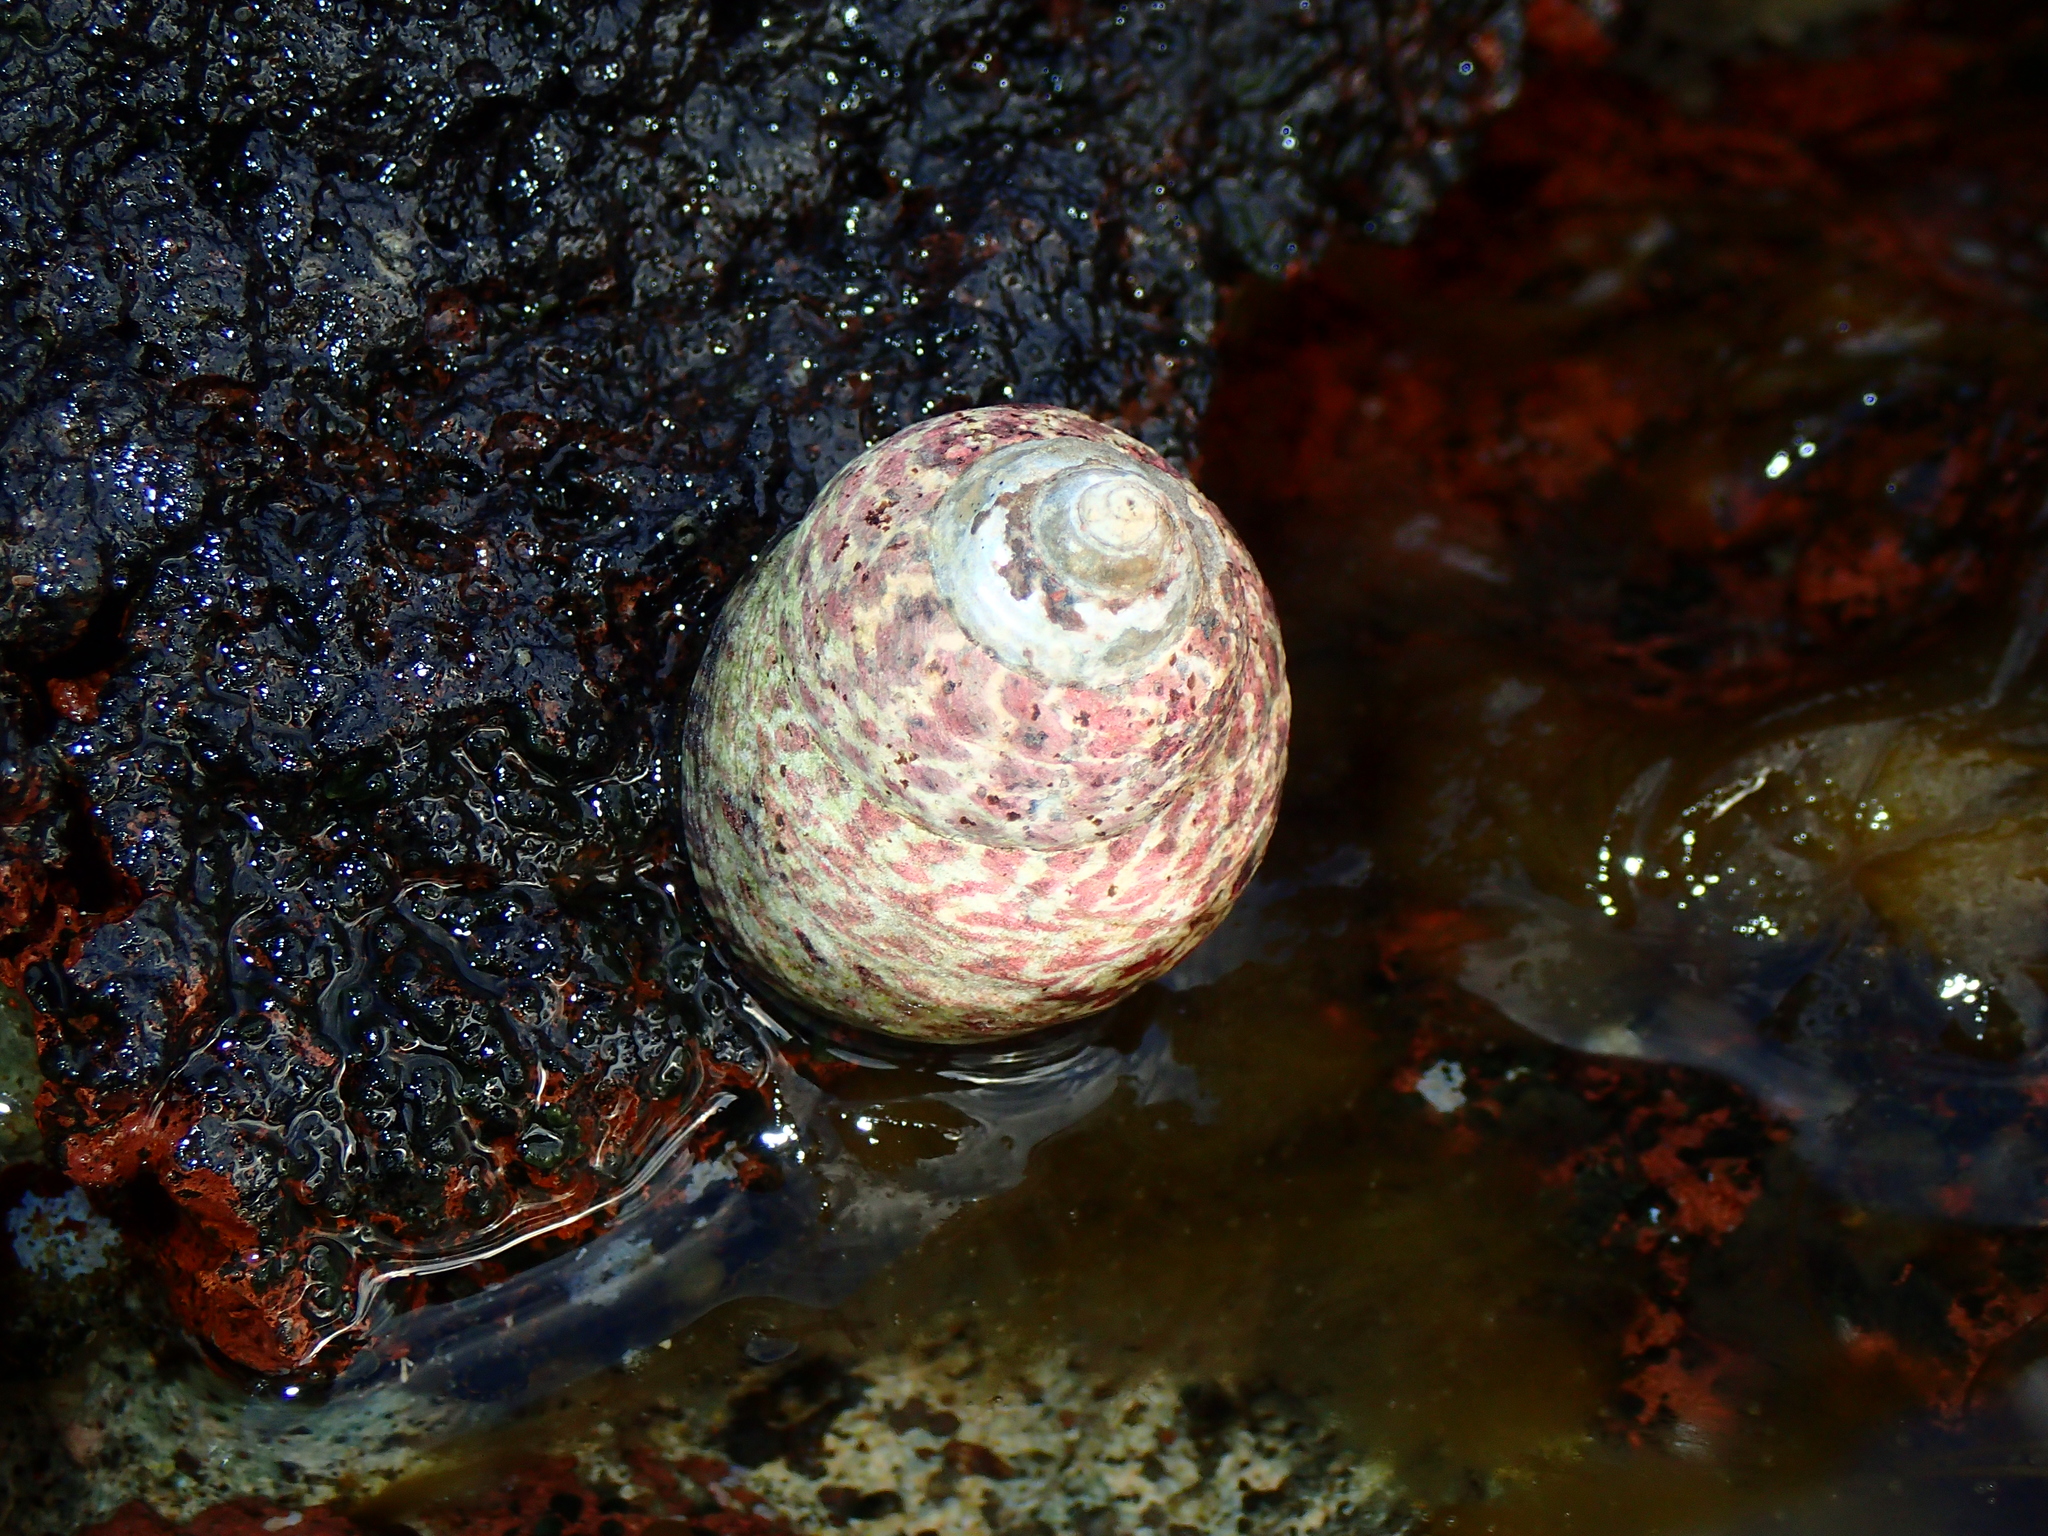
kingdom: Animalia
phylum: Mollusca
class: Gastropoda
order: Trochida
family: Trochidae
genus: Phorcus
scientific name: Phorcus sauciatus
